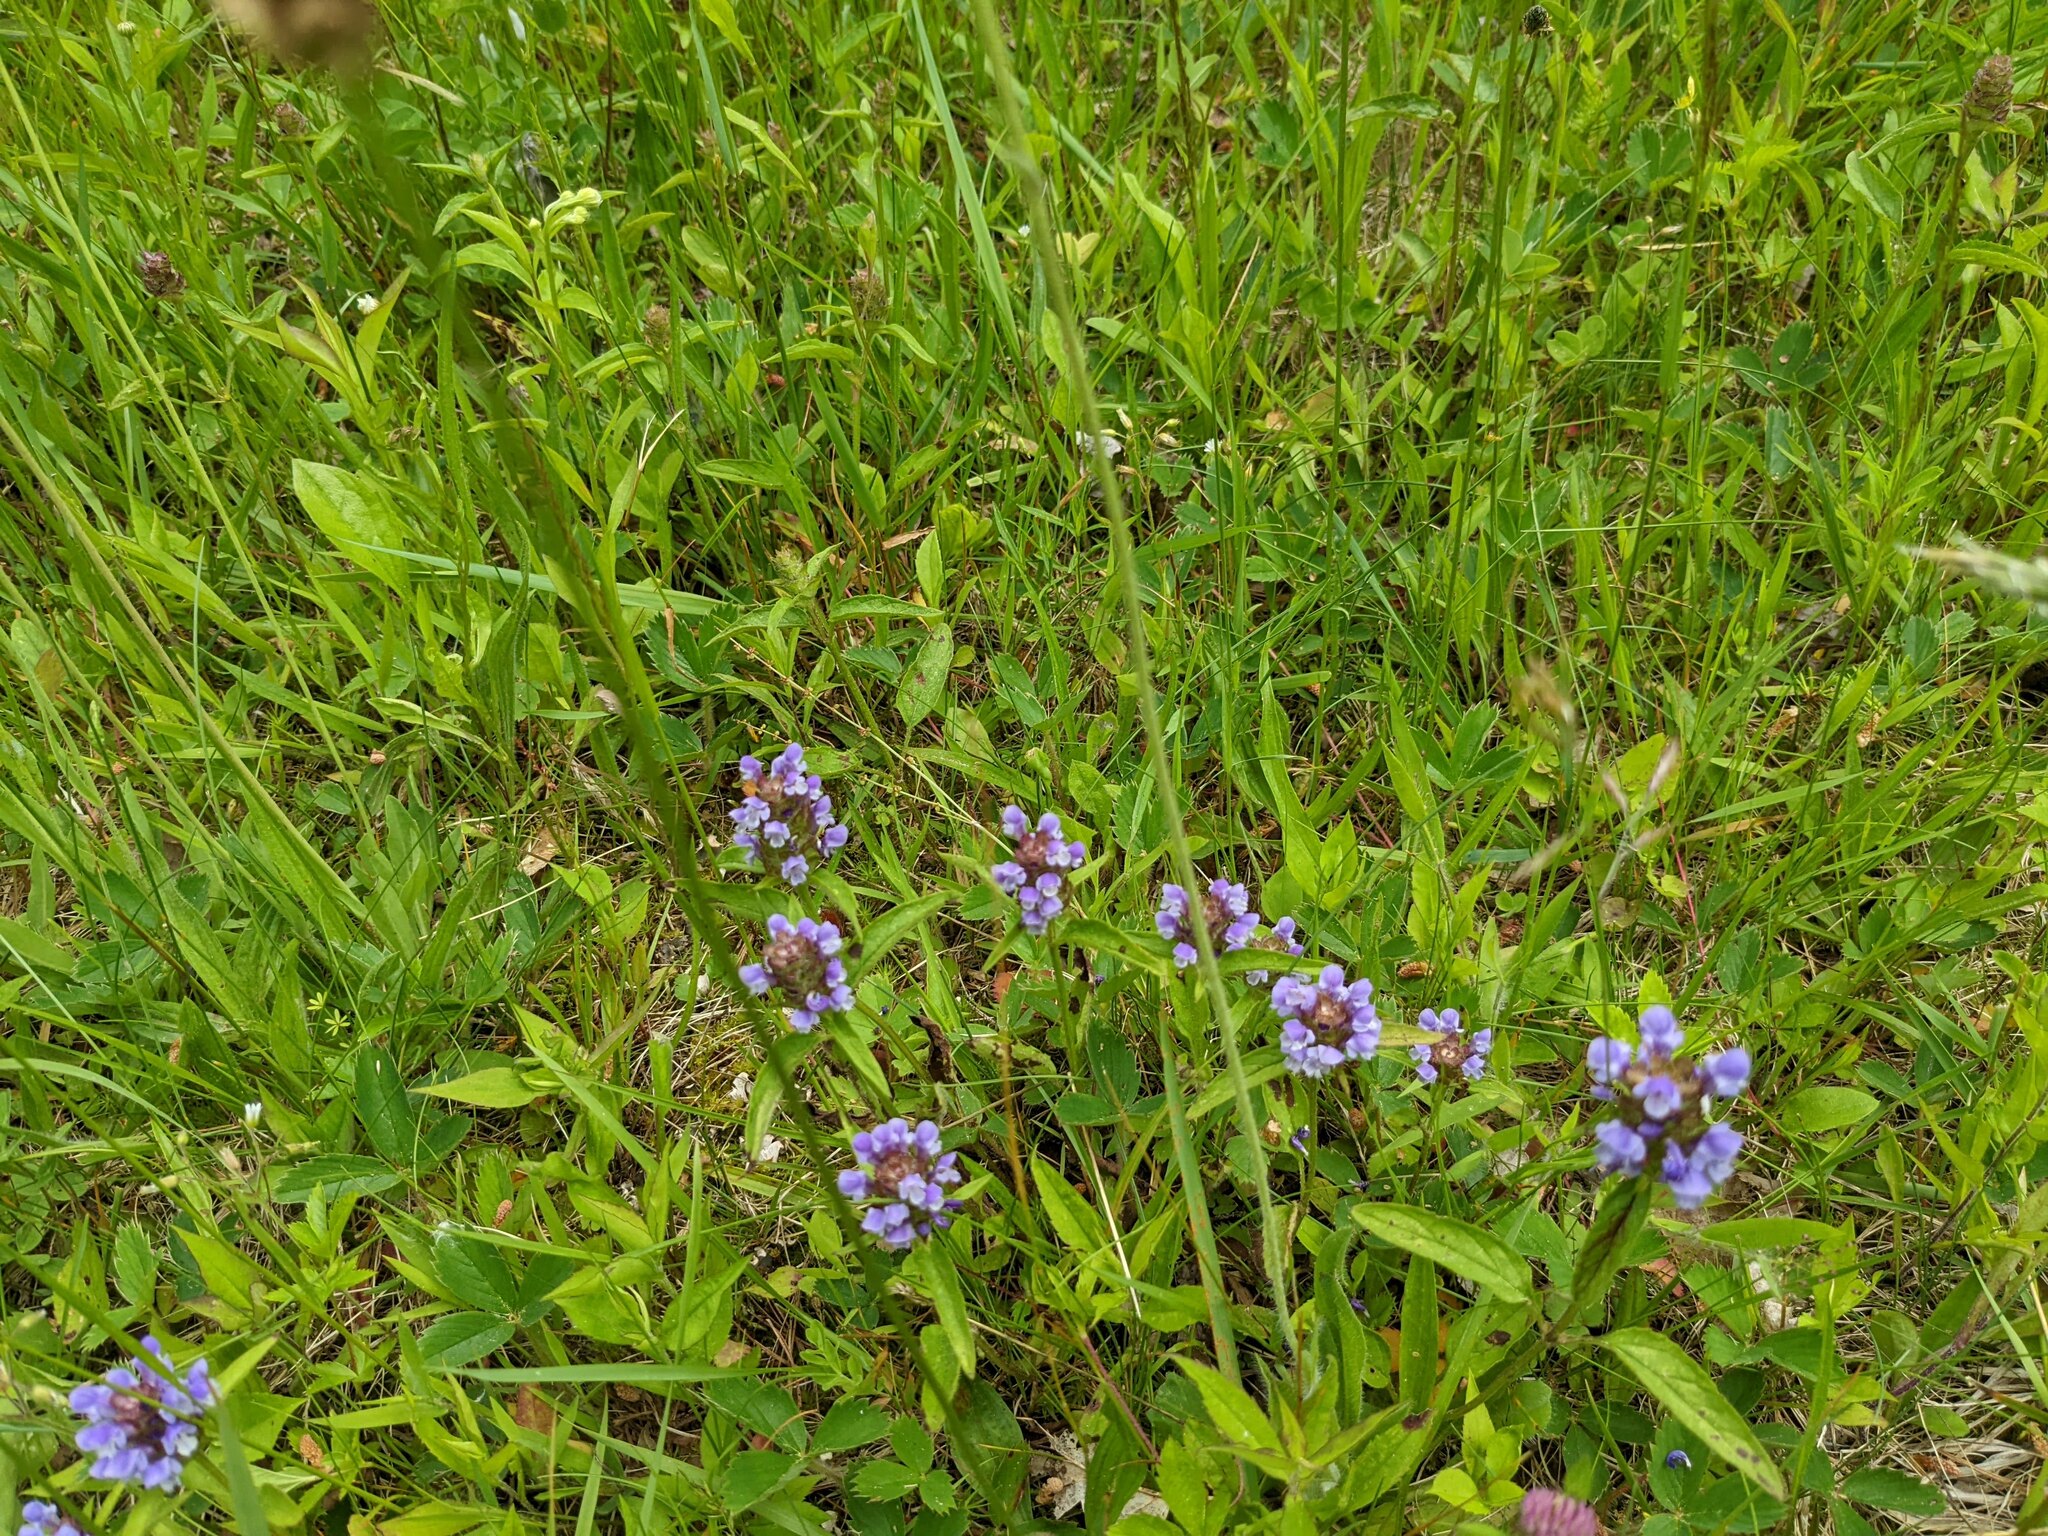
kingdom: Plantae
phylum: Tracheophyta
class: Magnoliopsida
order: Lamiales
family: Lamiaceae
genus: Prunella
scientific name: Prunella vulgaris
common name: Heal-all
